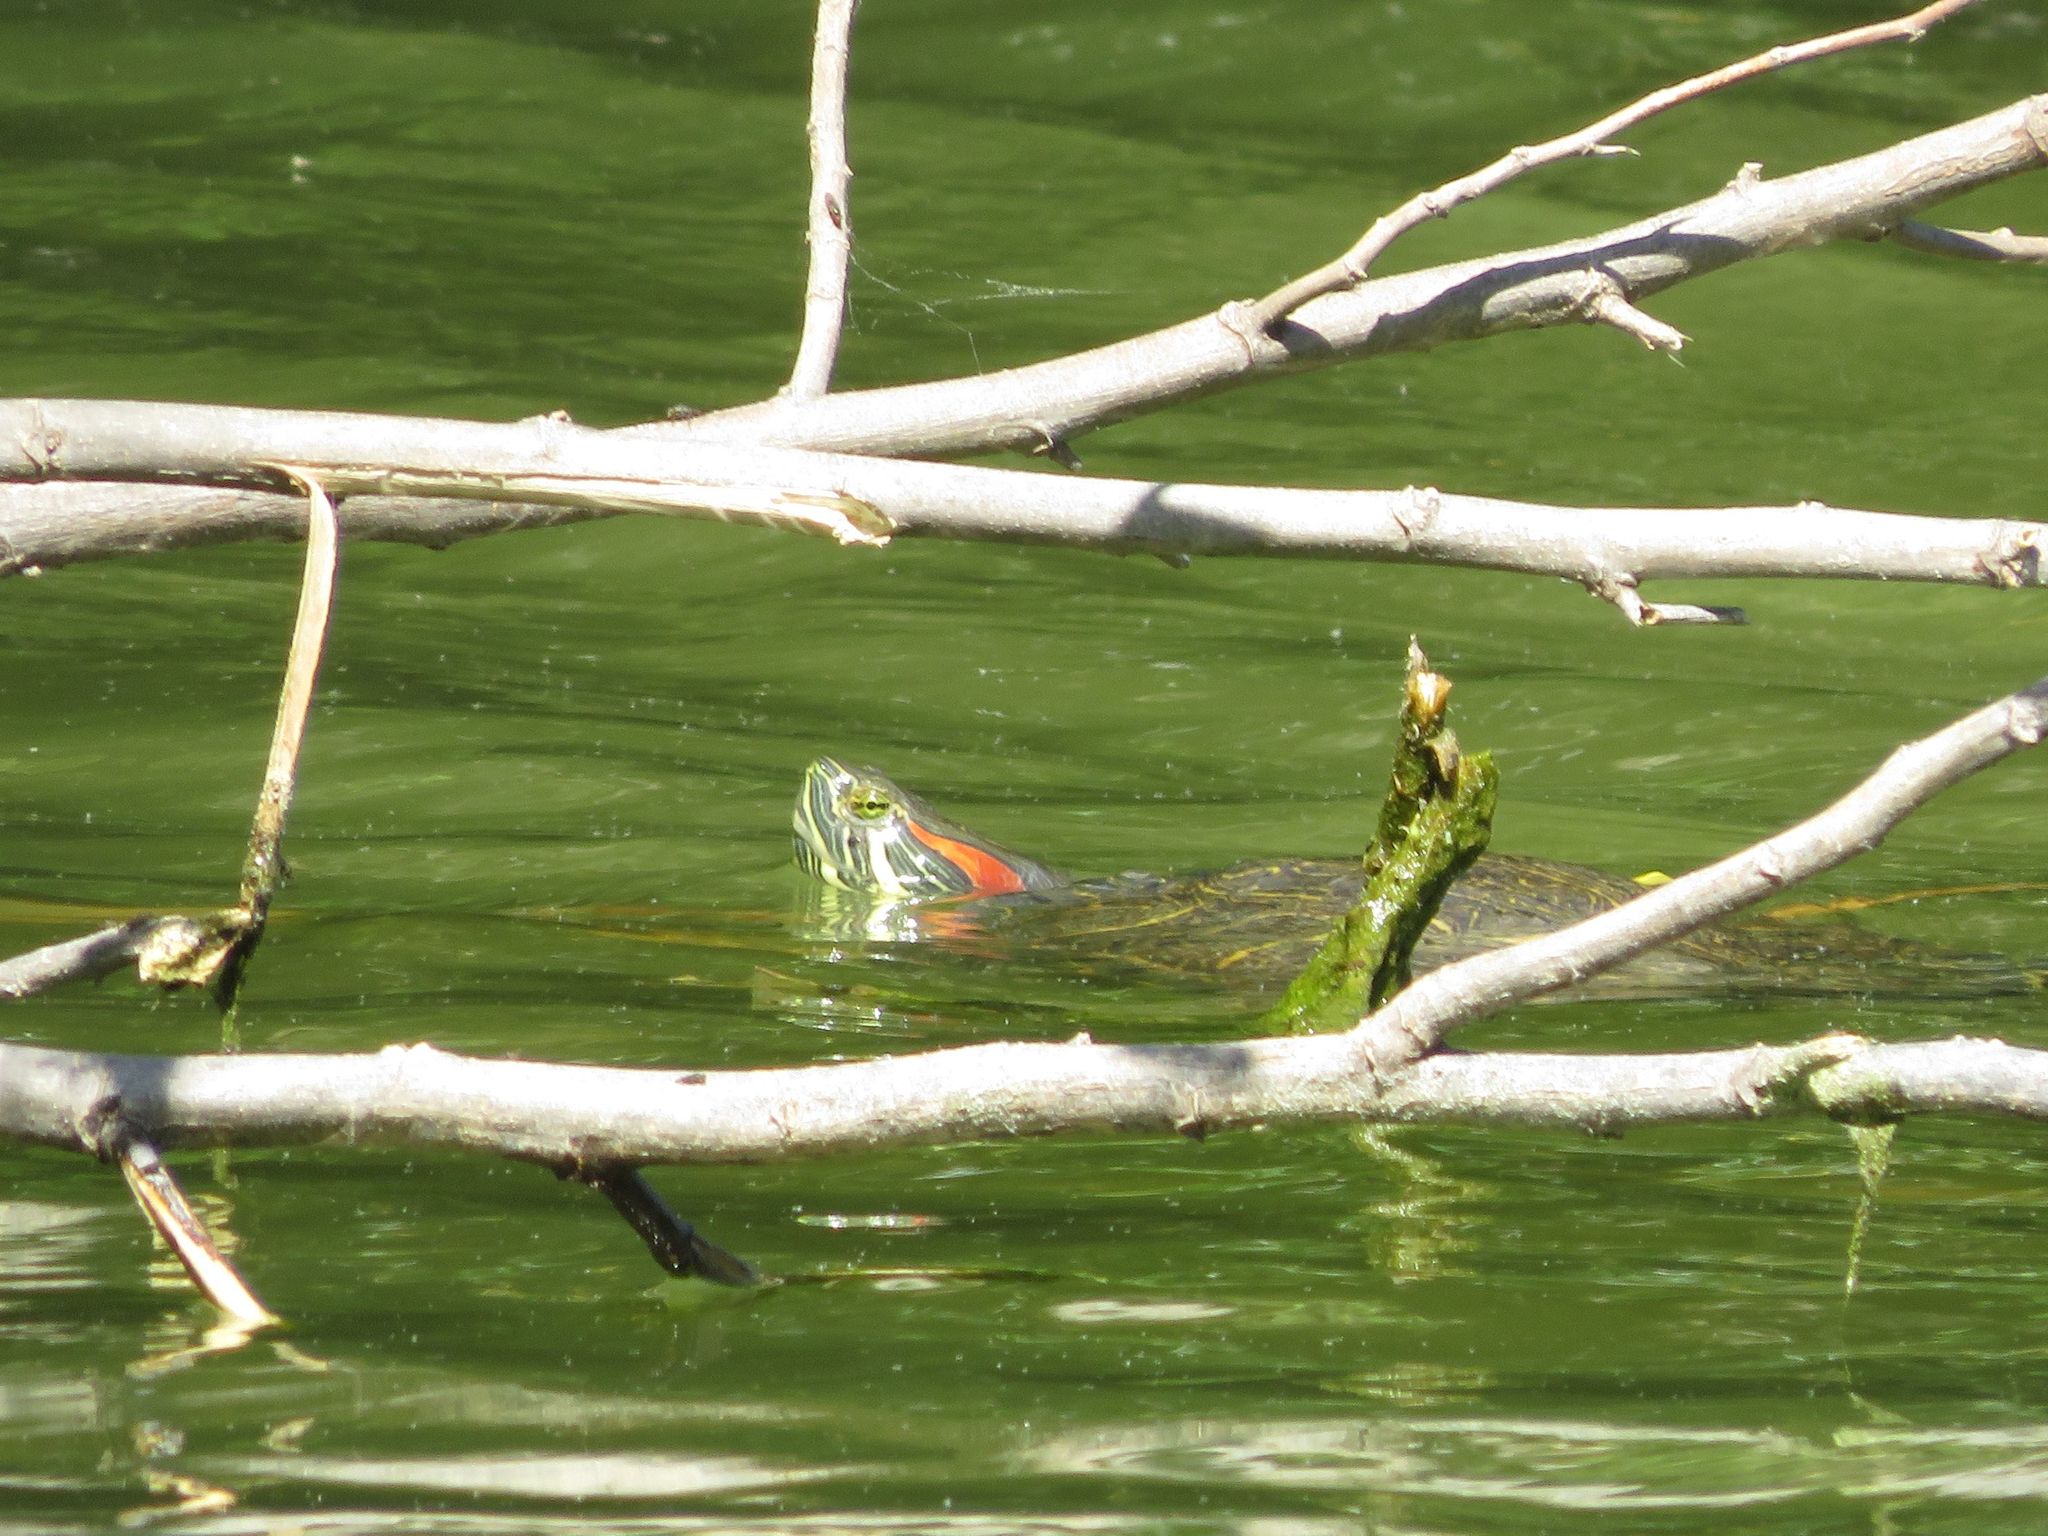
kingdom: Animalia
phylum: Chordata
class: Testudines
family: Emydidae
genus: Trachemys
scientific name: Trachemys scripta
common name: Slider
